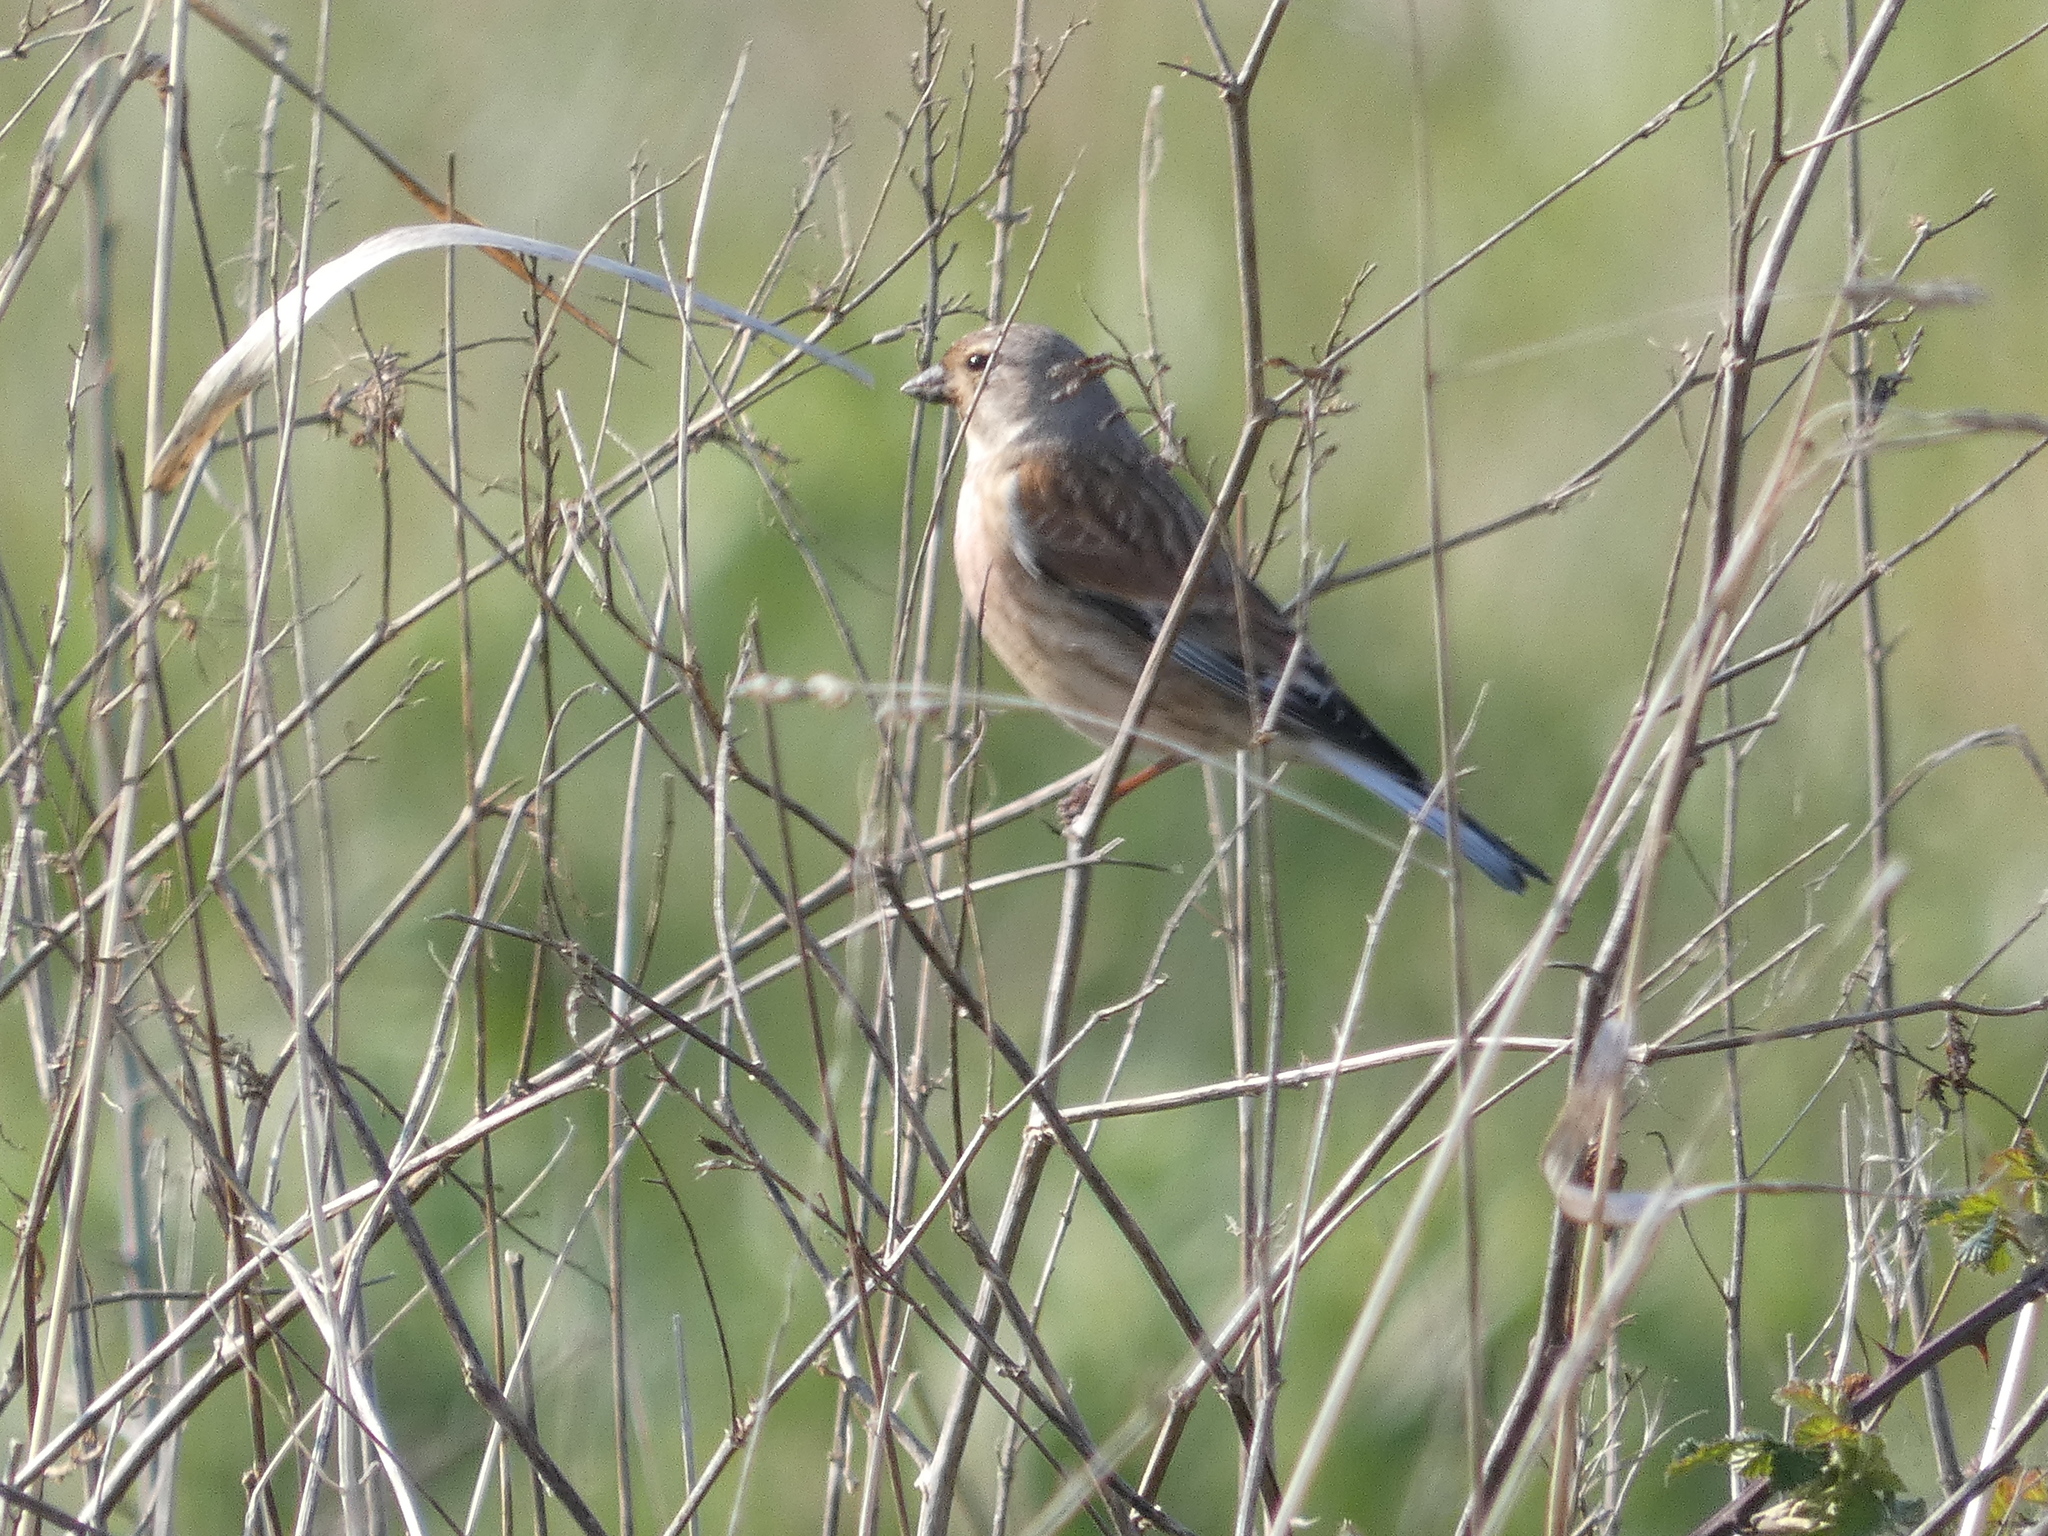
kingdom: Animalia
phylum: Chordata
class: Aves
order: Passeriformes
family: Fringillidae
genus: Linaria
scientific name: Linaria cannabina
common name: Common linnet
